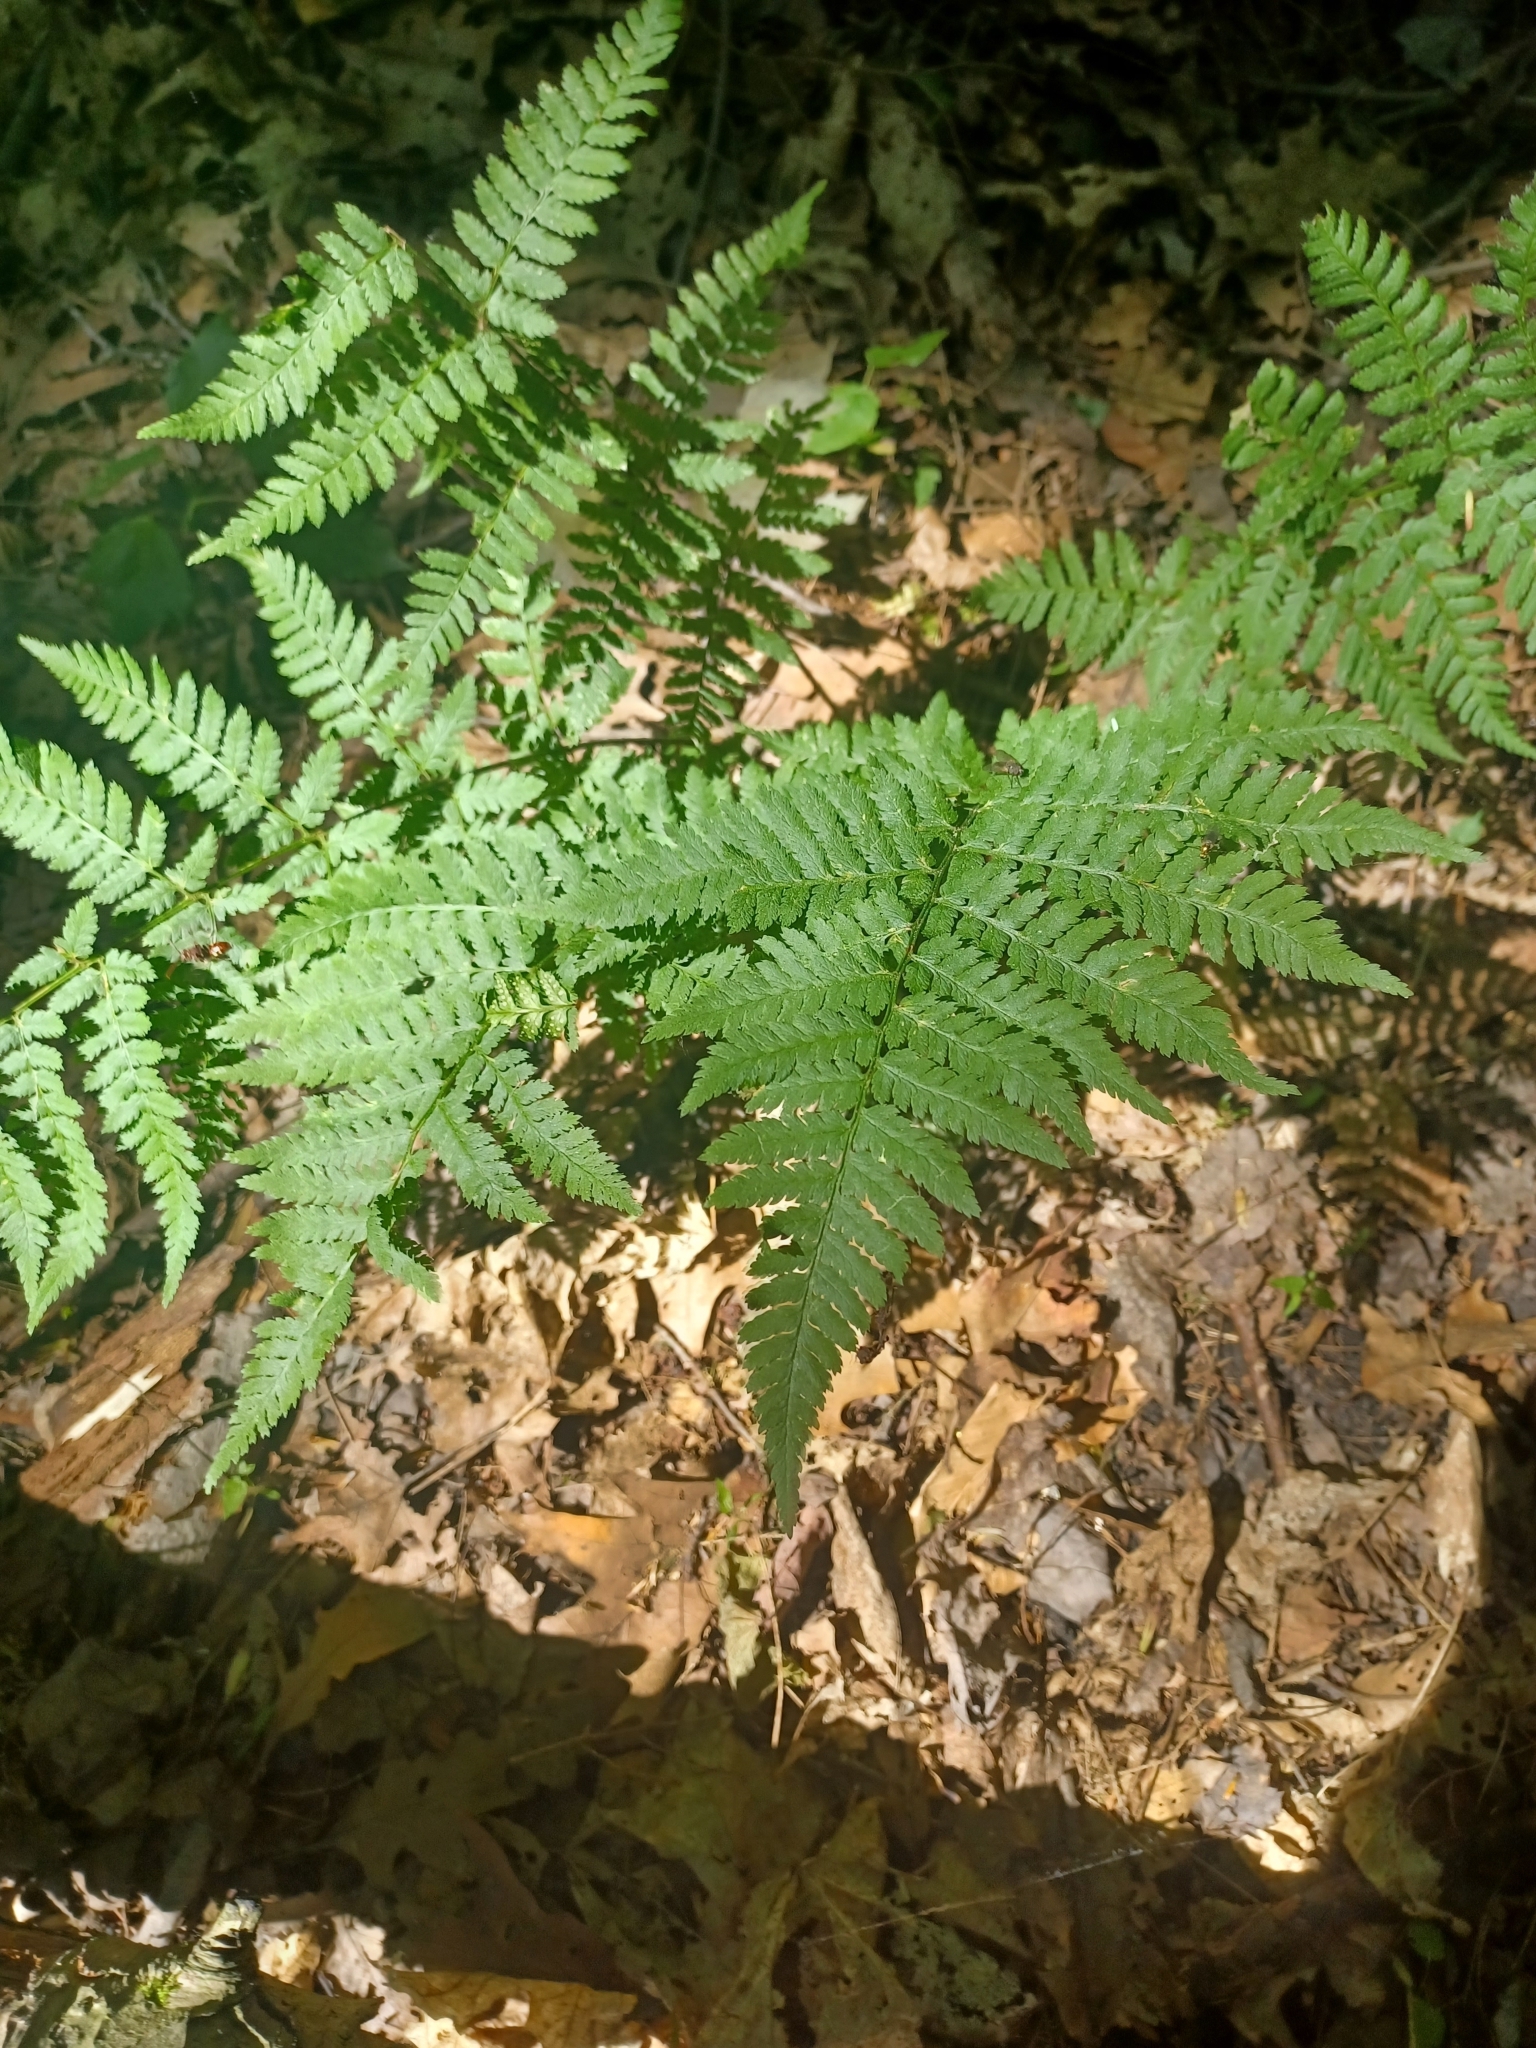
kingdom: Plantae
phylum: Tracheophyta
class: Polypodiopsida
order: Polypodiales
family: Dryopteridaceae
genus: Dryopteris
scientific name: Dryopteris intermedia
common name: Evergreen wood fern
